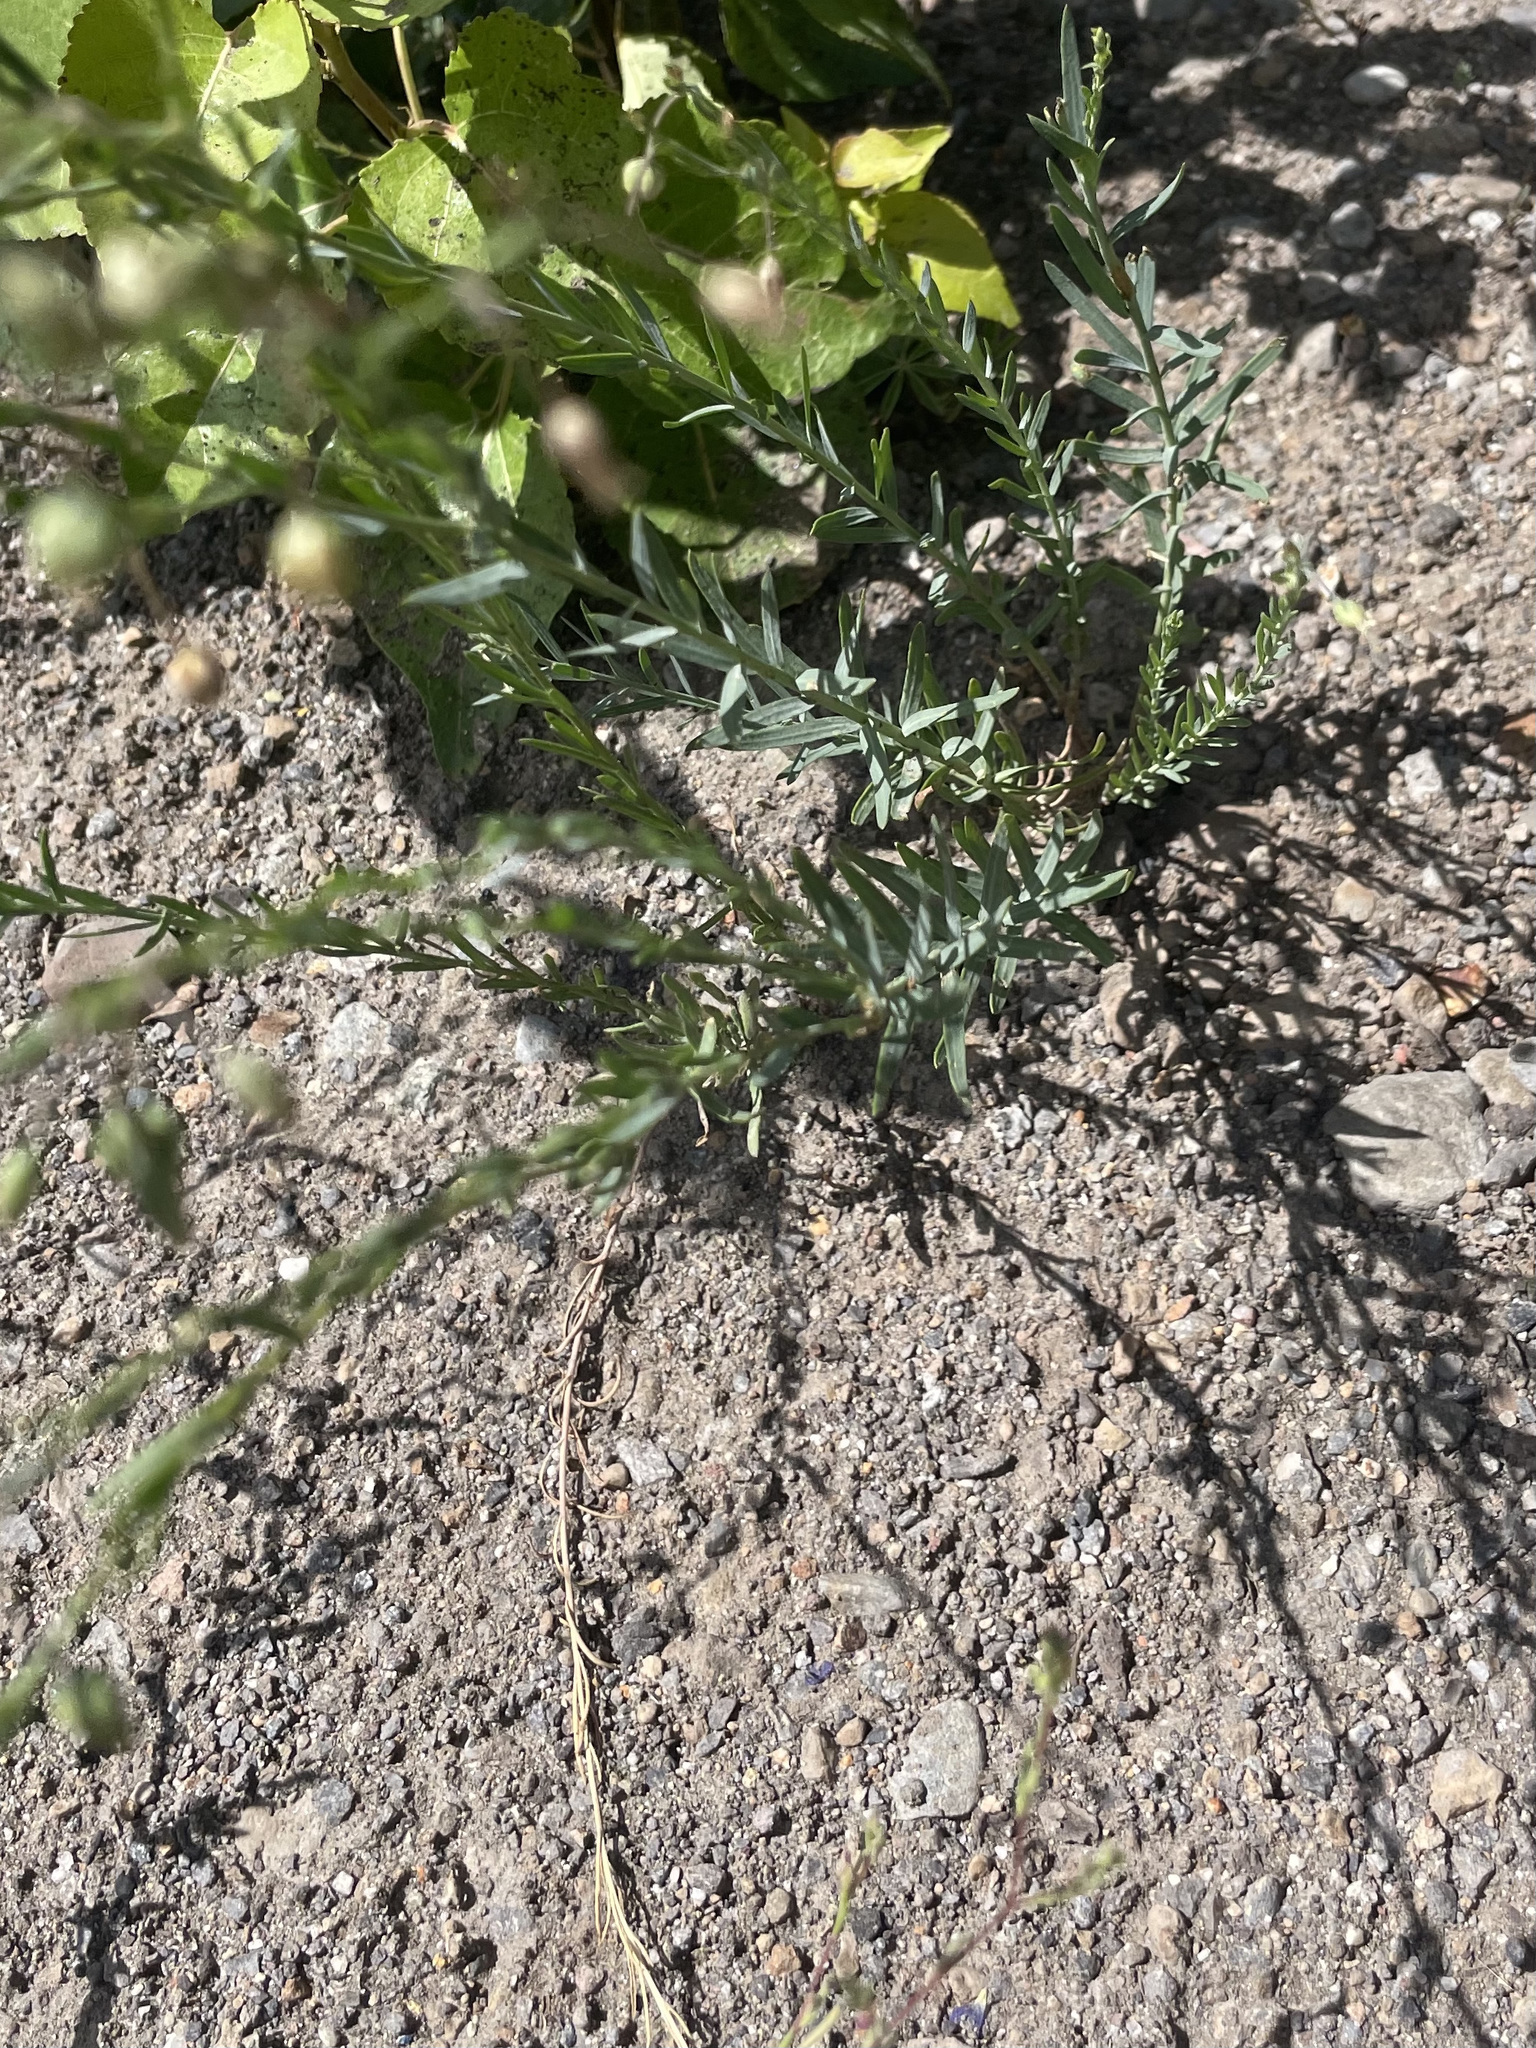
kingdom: Plantae
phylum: Tracheophyta
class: Magnoliopsida
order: Malpighiales
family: Linaceae
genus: Linum
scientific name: Linum lewisii
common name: Prairie flax
